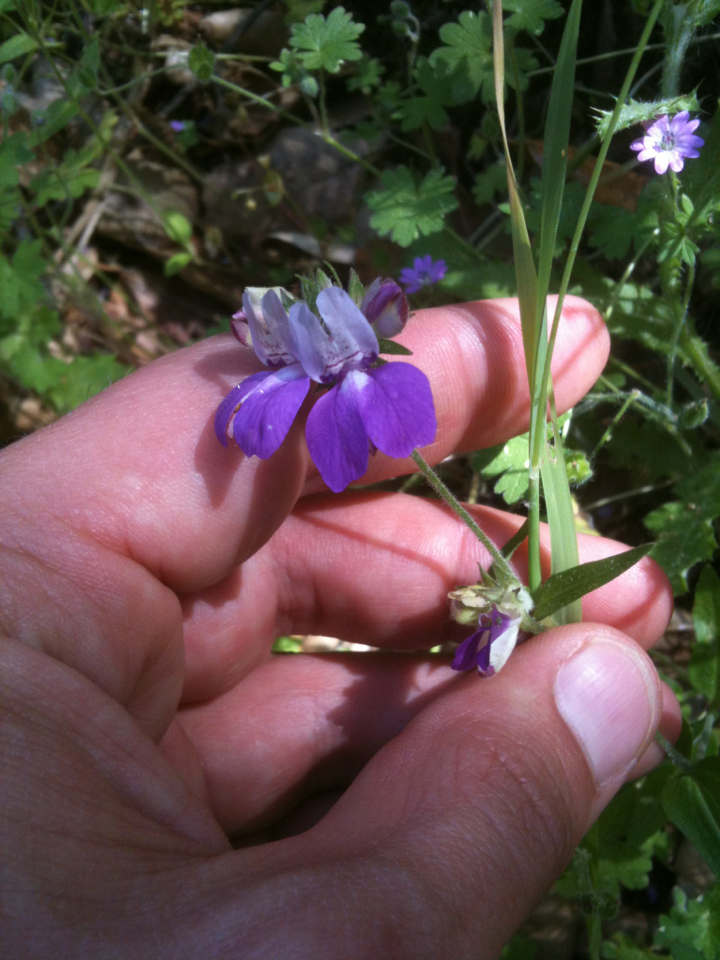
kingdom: Plantae
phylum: Tracheophyta
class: Magnoliopsida
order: Lamiales
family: Plantaginaceae
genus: Collinsia
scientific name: Collinsia heterophylla
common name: Chinese-houses
